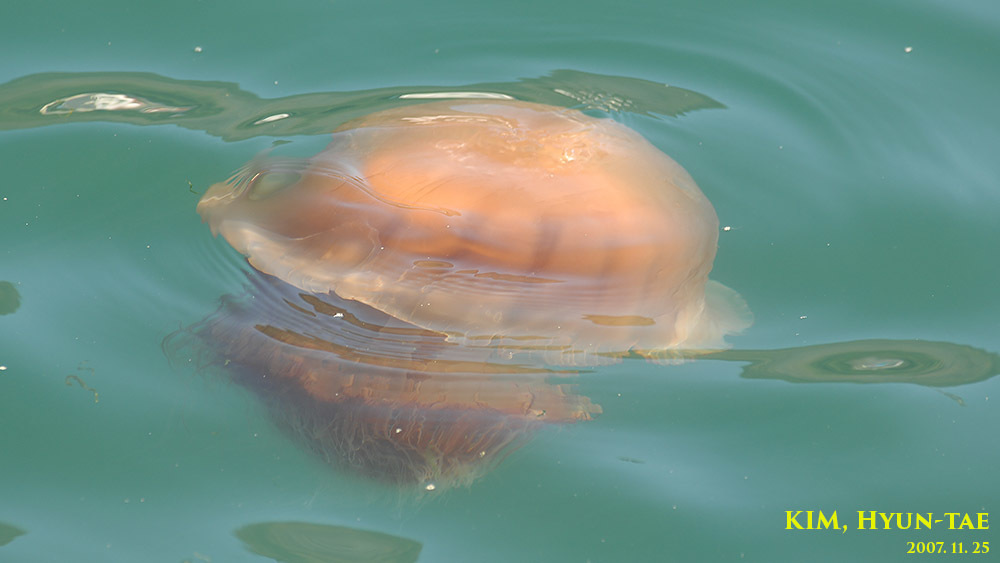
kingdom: Animalia
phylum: Cnidaria
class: Scyphozoa
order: Rhizostomeae
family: Rhizostomatidae
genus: Nemopilema
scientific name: Nemopilema nomurai
